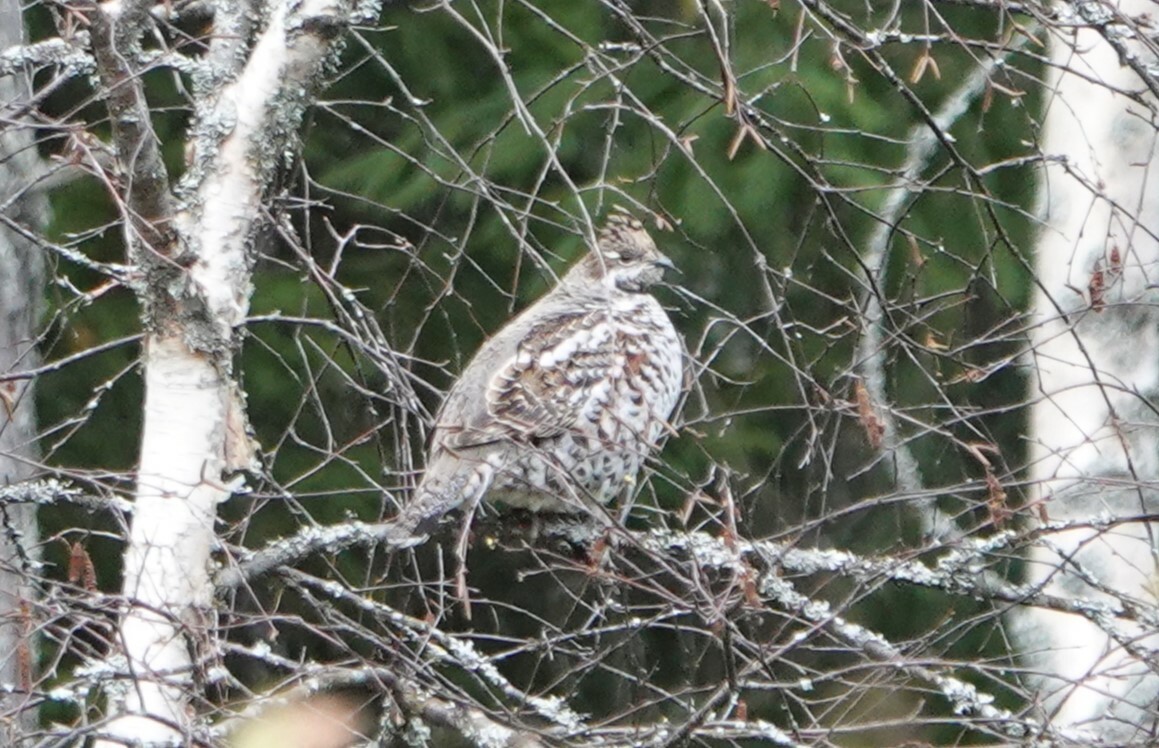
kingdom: Animalia
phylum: Chordata
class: Aves
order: Galliformes
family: Phasianidae
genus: Tetrastes
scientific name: Tetrastes bonasia
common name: Hazel grouse
